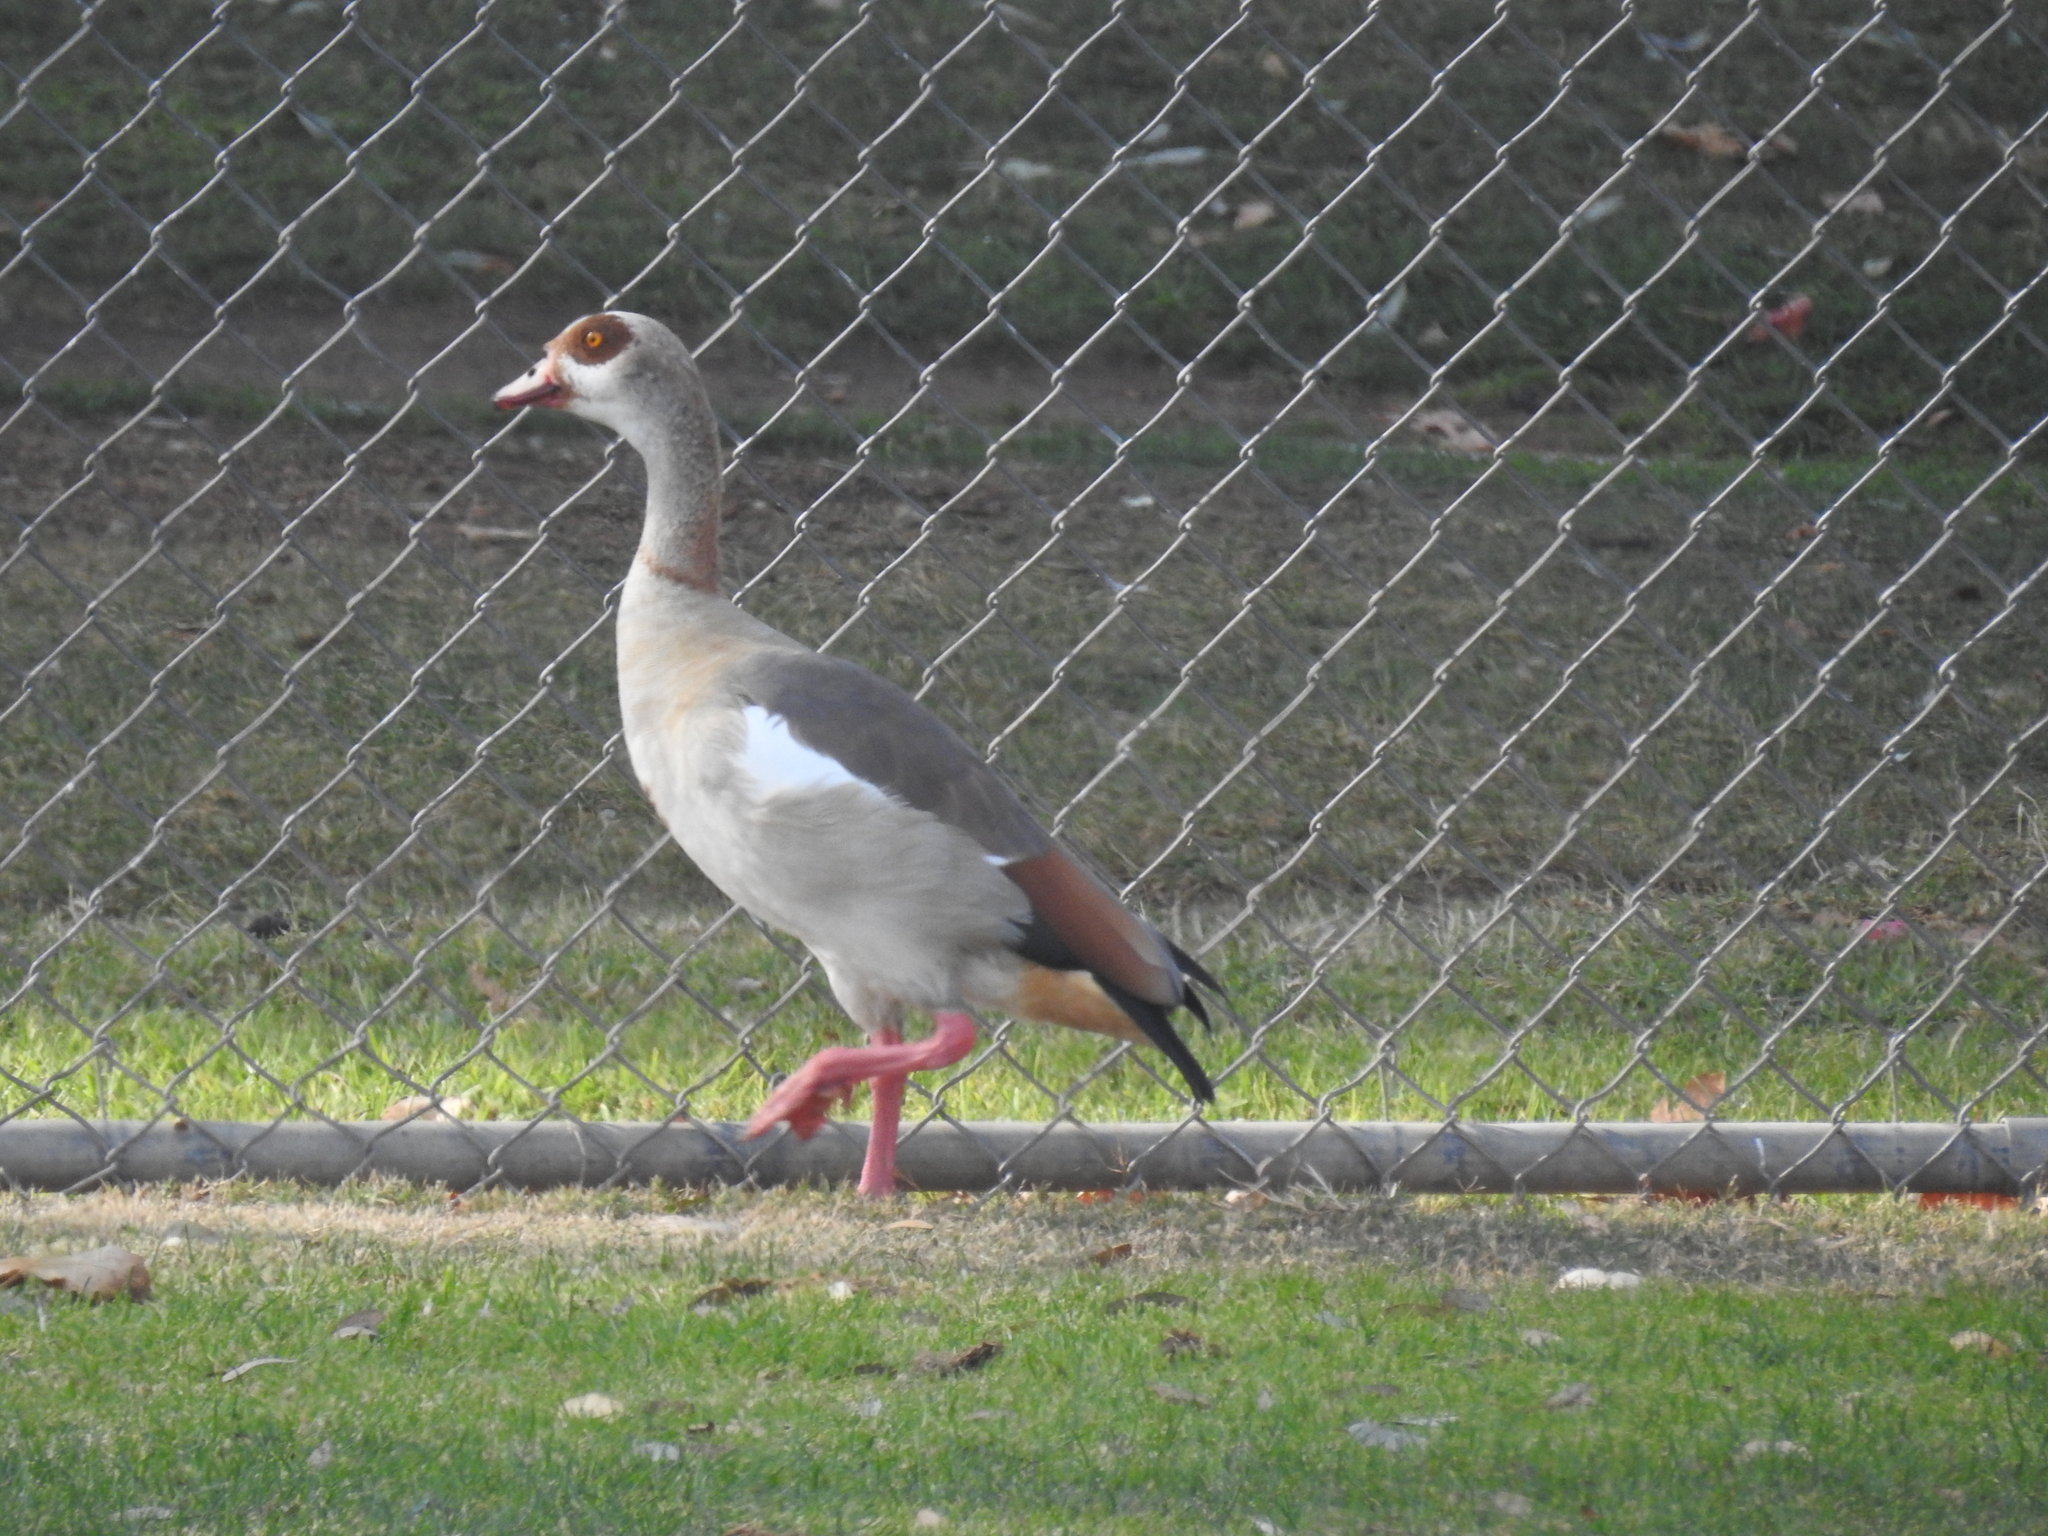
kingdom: Animalia
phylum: Chordata
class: Aves
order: Anseriformes
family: Anatidae
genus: Alopochen
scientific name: Alopochen aegyptiaca
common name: Egyptian goose
